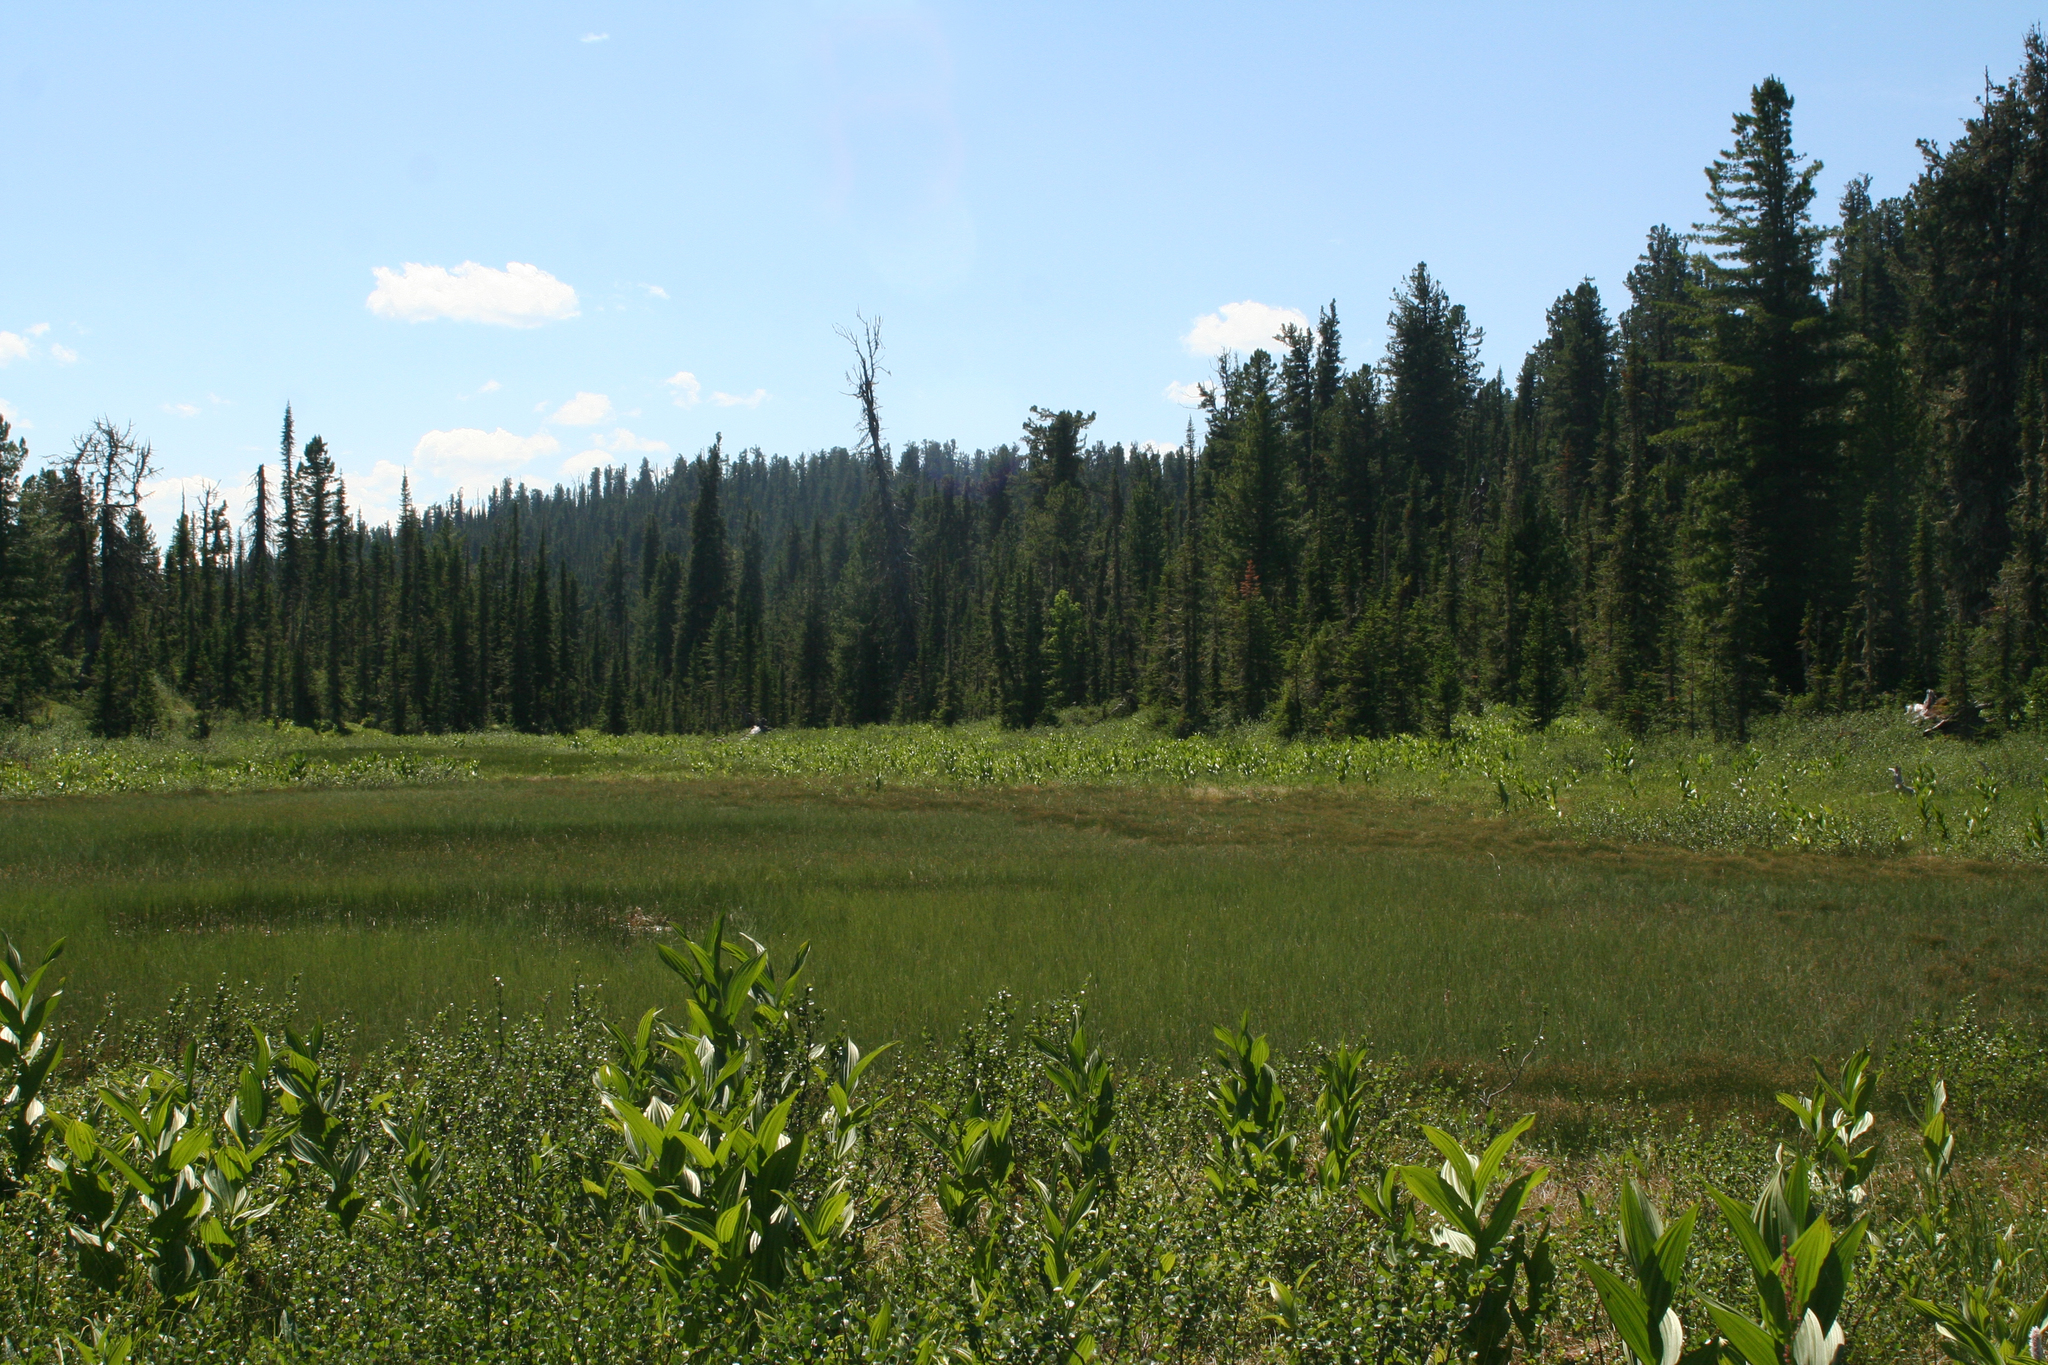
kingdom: Plantae
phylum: Tracheophyta
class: Liliopsida
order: Liliales
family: Melanthiaceae
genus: Veratrum
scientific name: Veratrum lobelianum
